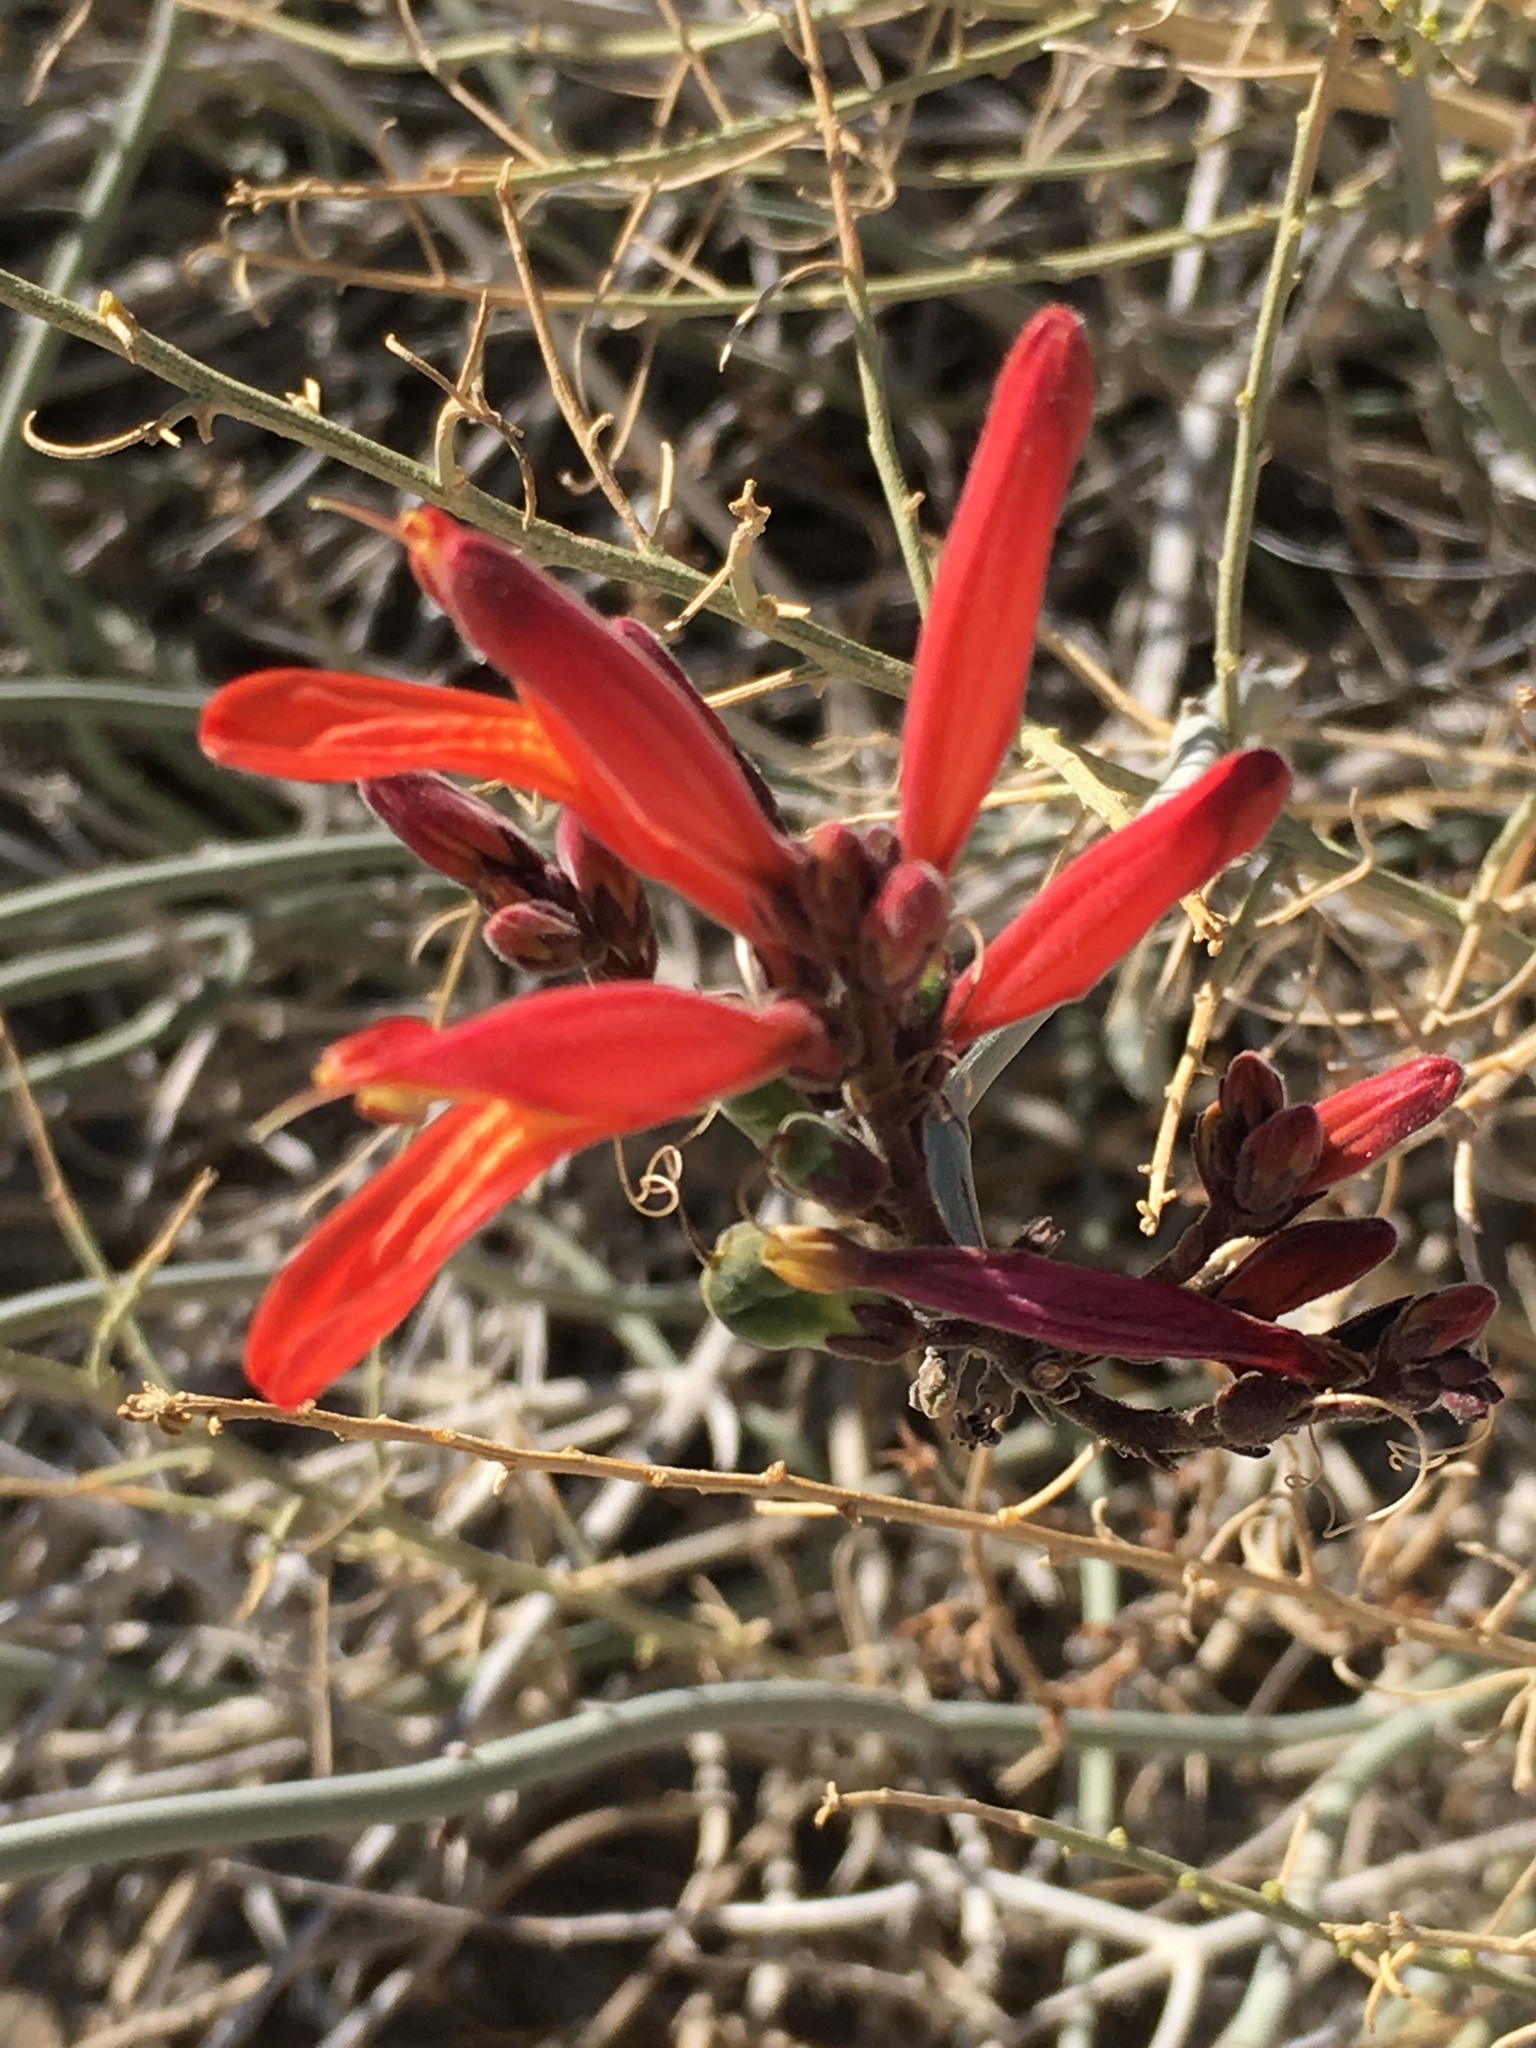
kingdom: Plantae
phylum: Tracheophyta
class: Magnoliopsida
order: Lamiales
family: Acanthaceae
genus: Justicia
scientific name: Justicia californica
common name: Chuparosa-honeysuckle
